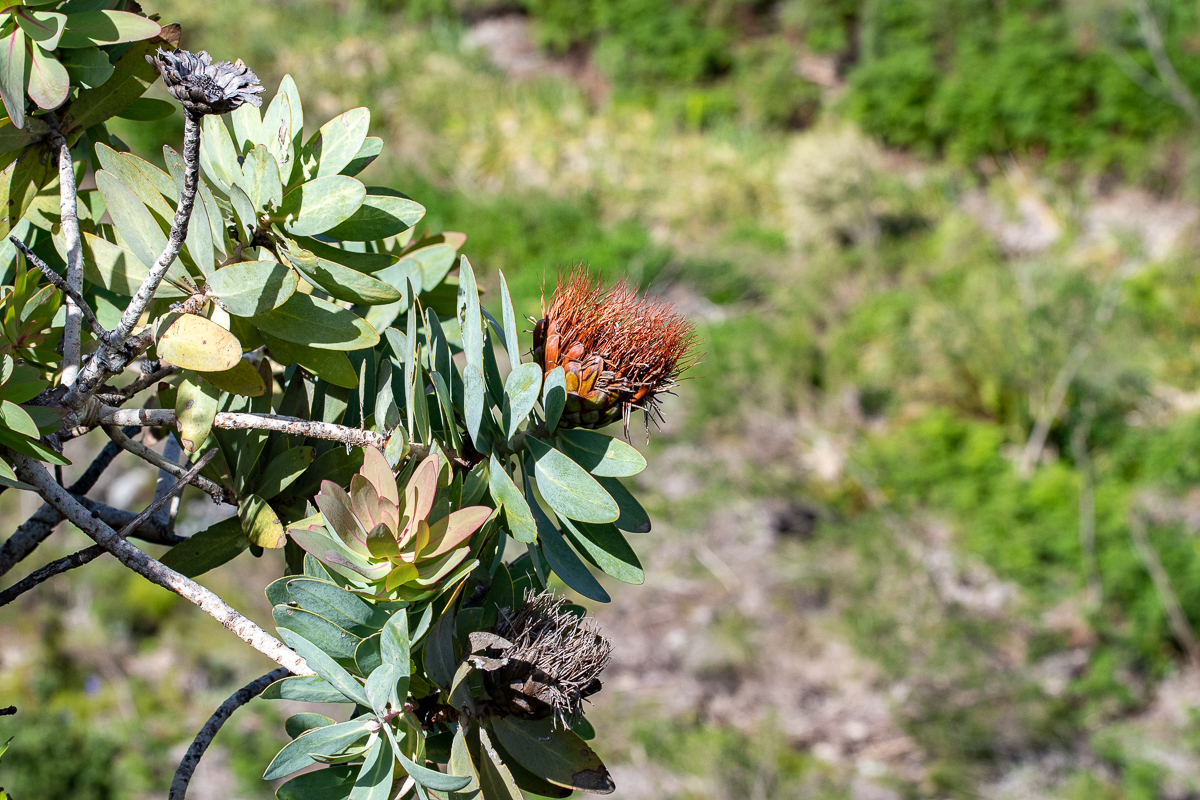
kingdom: Plantae
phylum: Tracheophyta
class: Magnoliopsida
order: Proteales
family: Proteaceae
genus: Protea
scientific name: Protea nitida
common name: Tree protea
